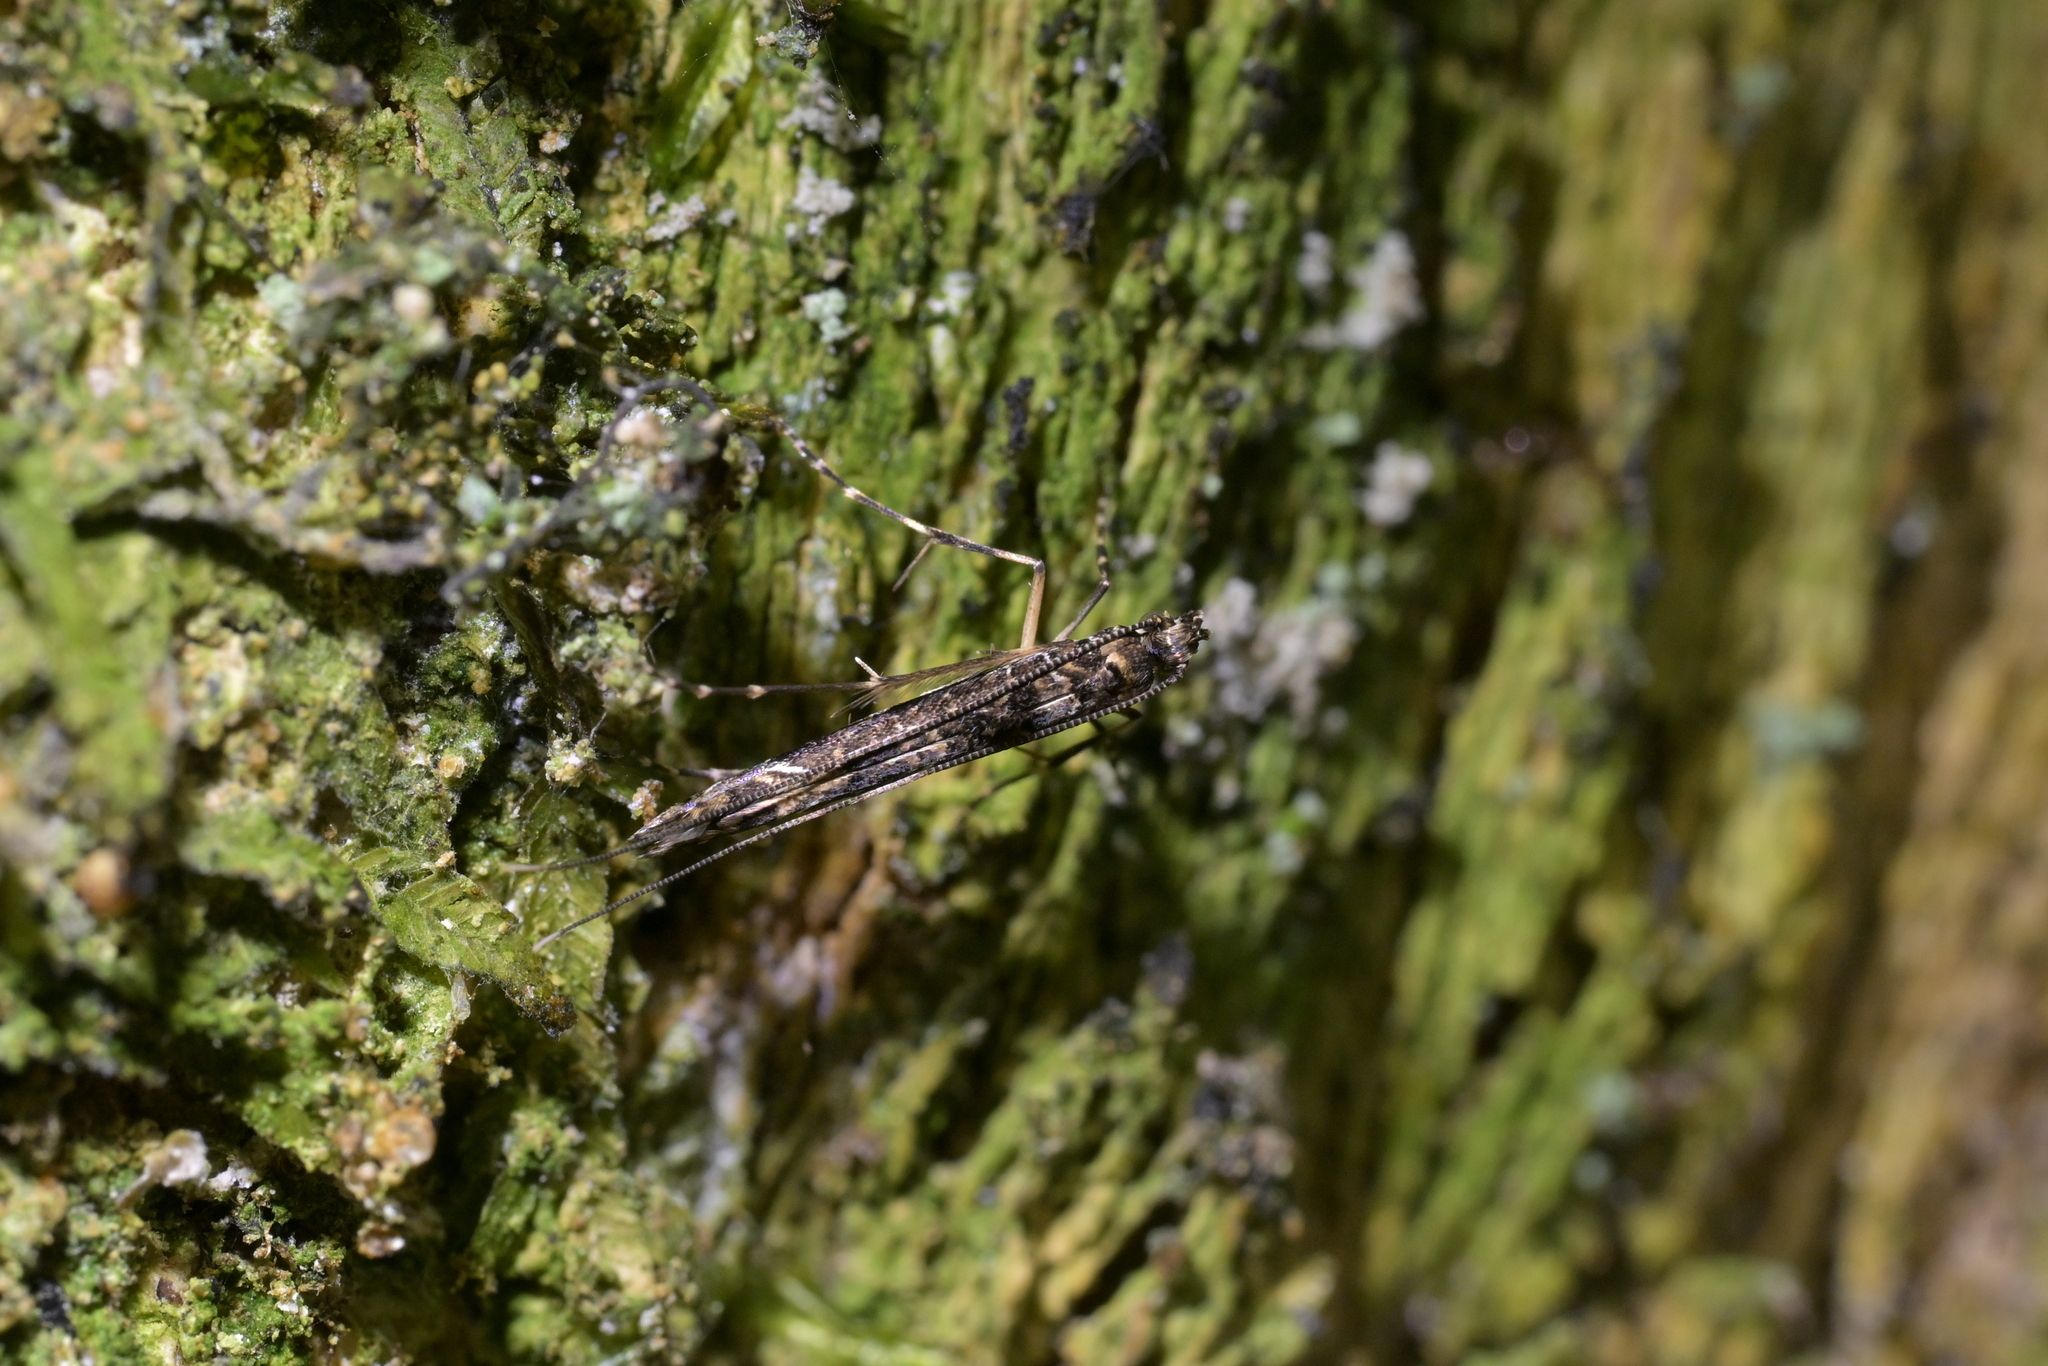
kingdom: Animalia
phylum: Arthropoda
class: Insecta
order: Lepidoptera
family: Gracillariidae
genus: Conopomorpha
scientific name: Conopomorpha cyanospila
